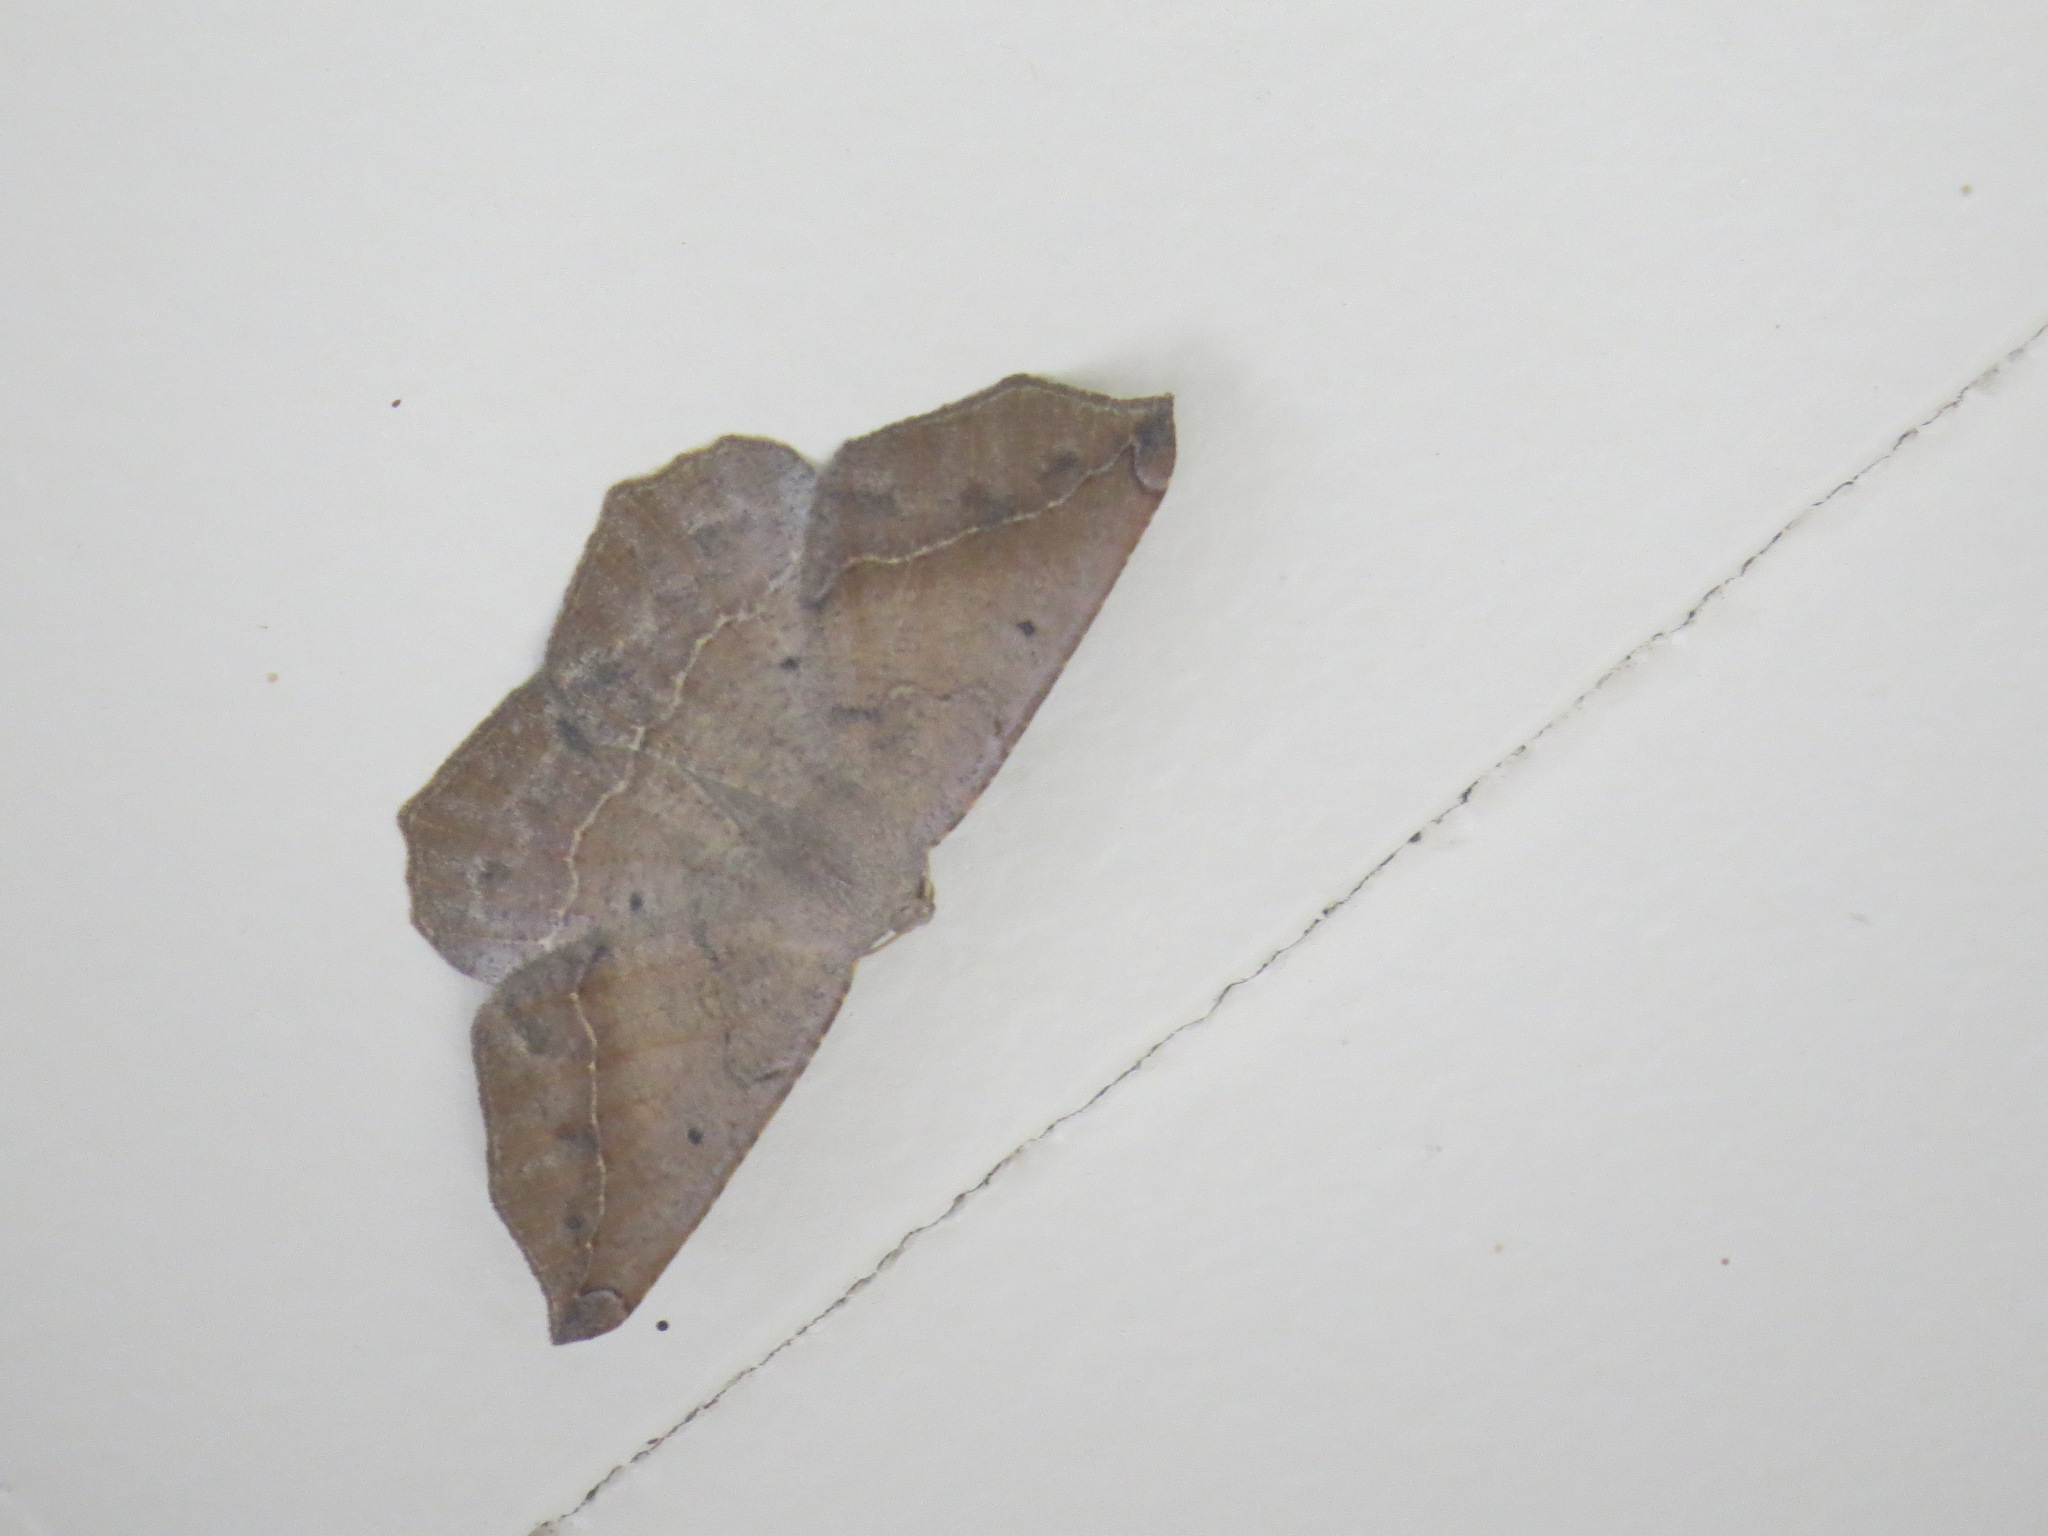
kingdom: Animalia
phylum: Arthropoda
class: Insecta
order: Lepidoptera
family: Geometridae
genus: Prochoerodes
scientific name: Prochoerodes forficaria
